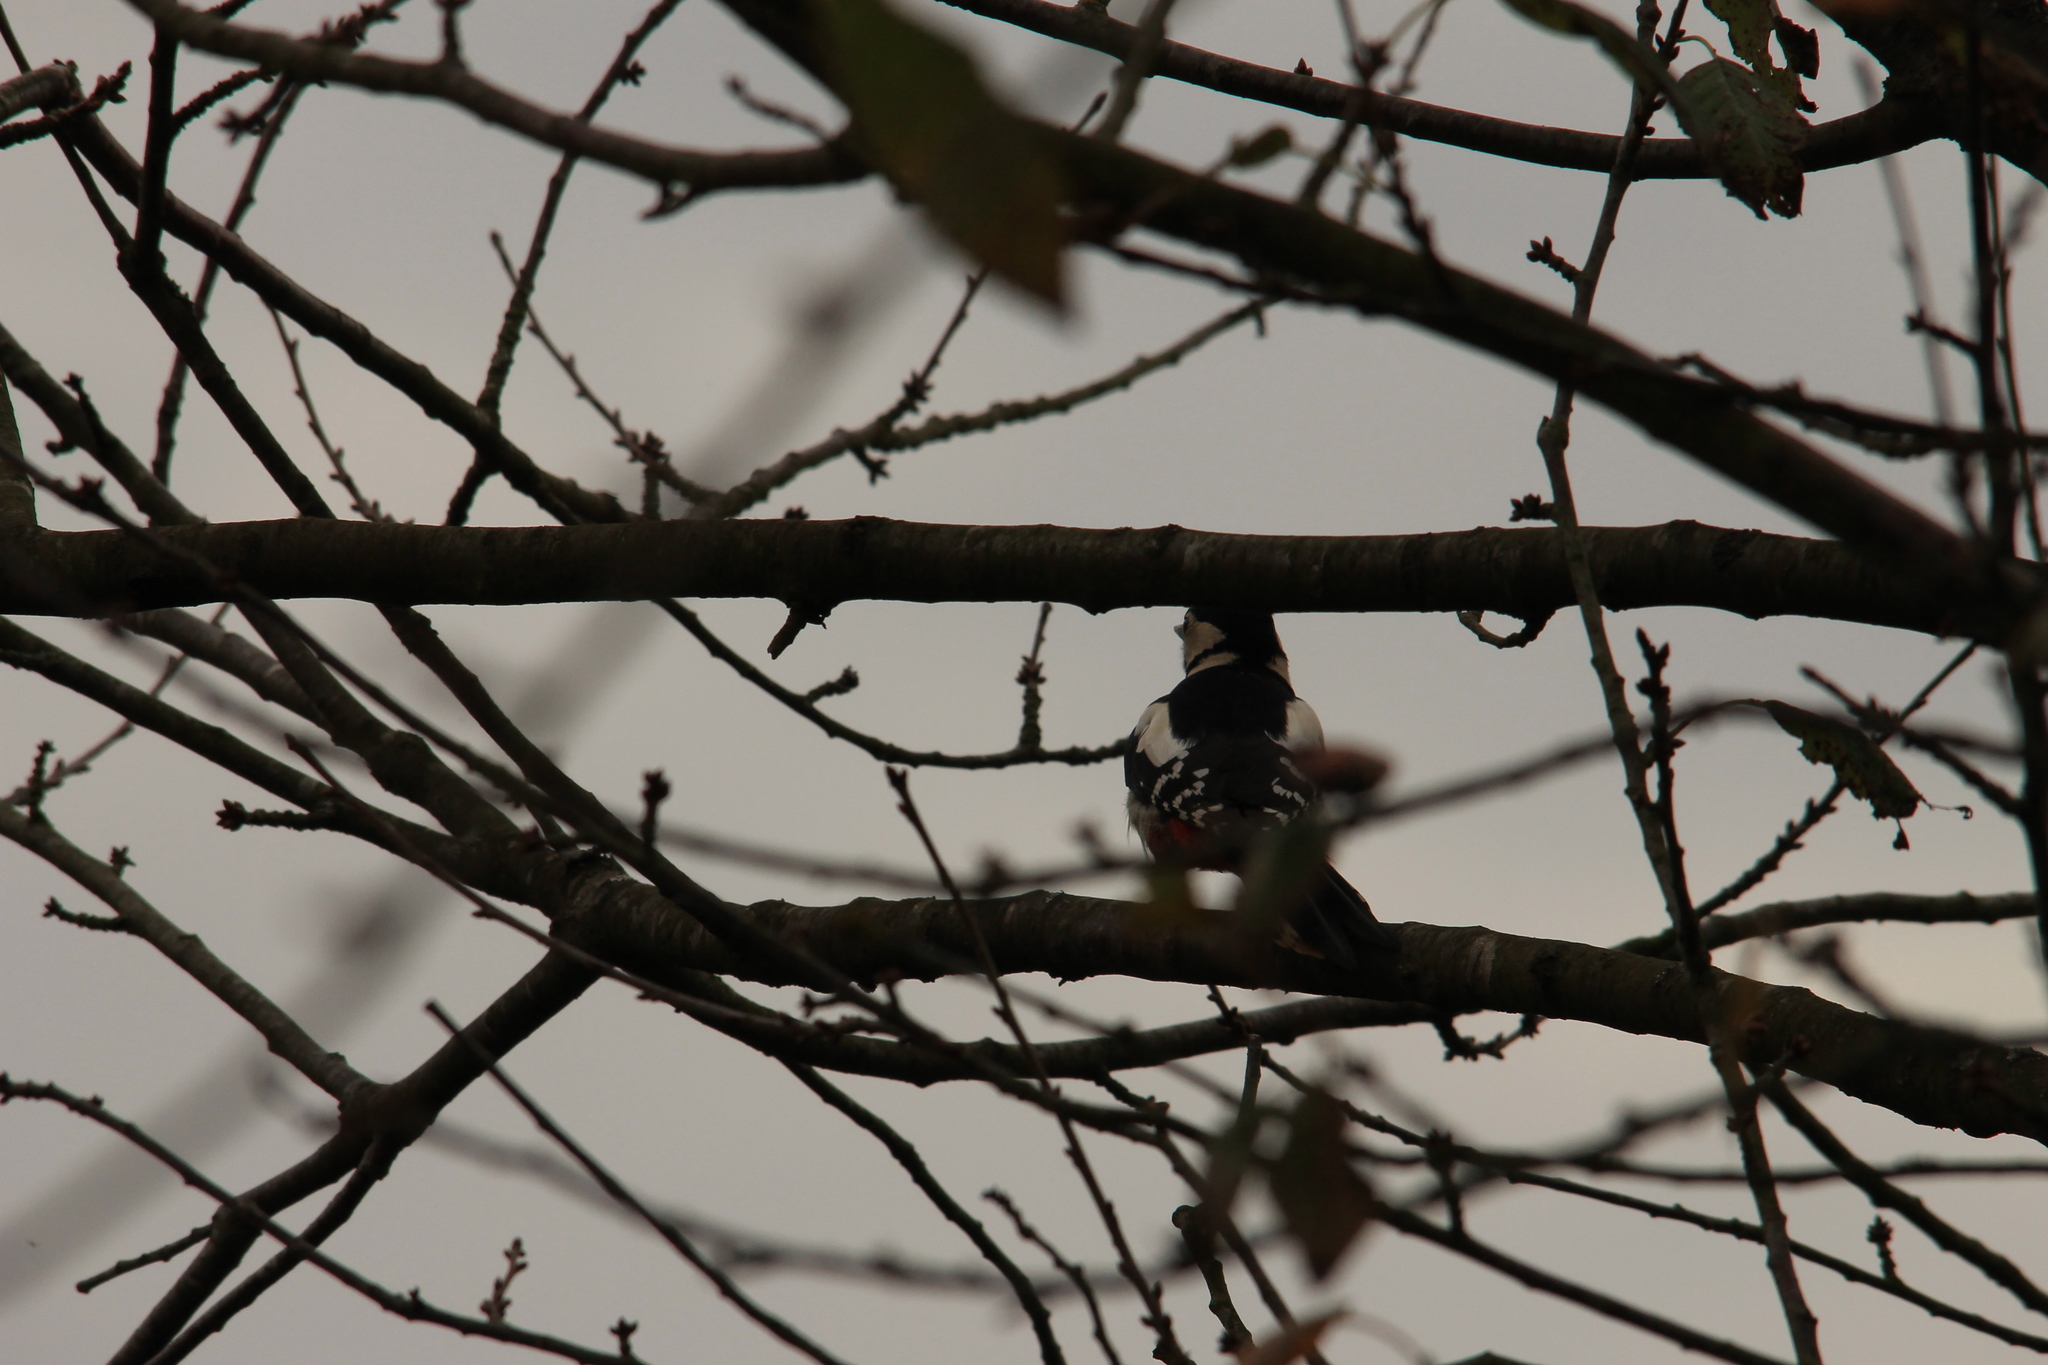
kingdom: Animalia
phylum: Chordata
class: Aves
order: Piciformes
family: Picidae
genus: Dendrocopos
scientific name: Dendrocopos major
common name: Great spotted woodpecker
